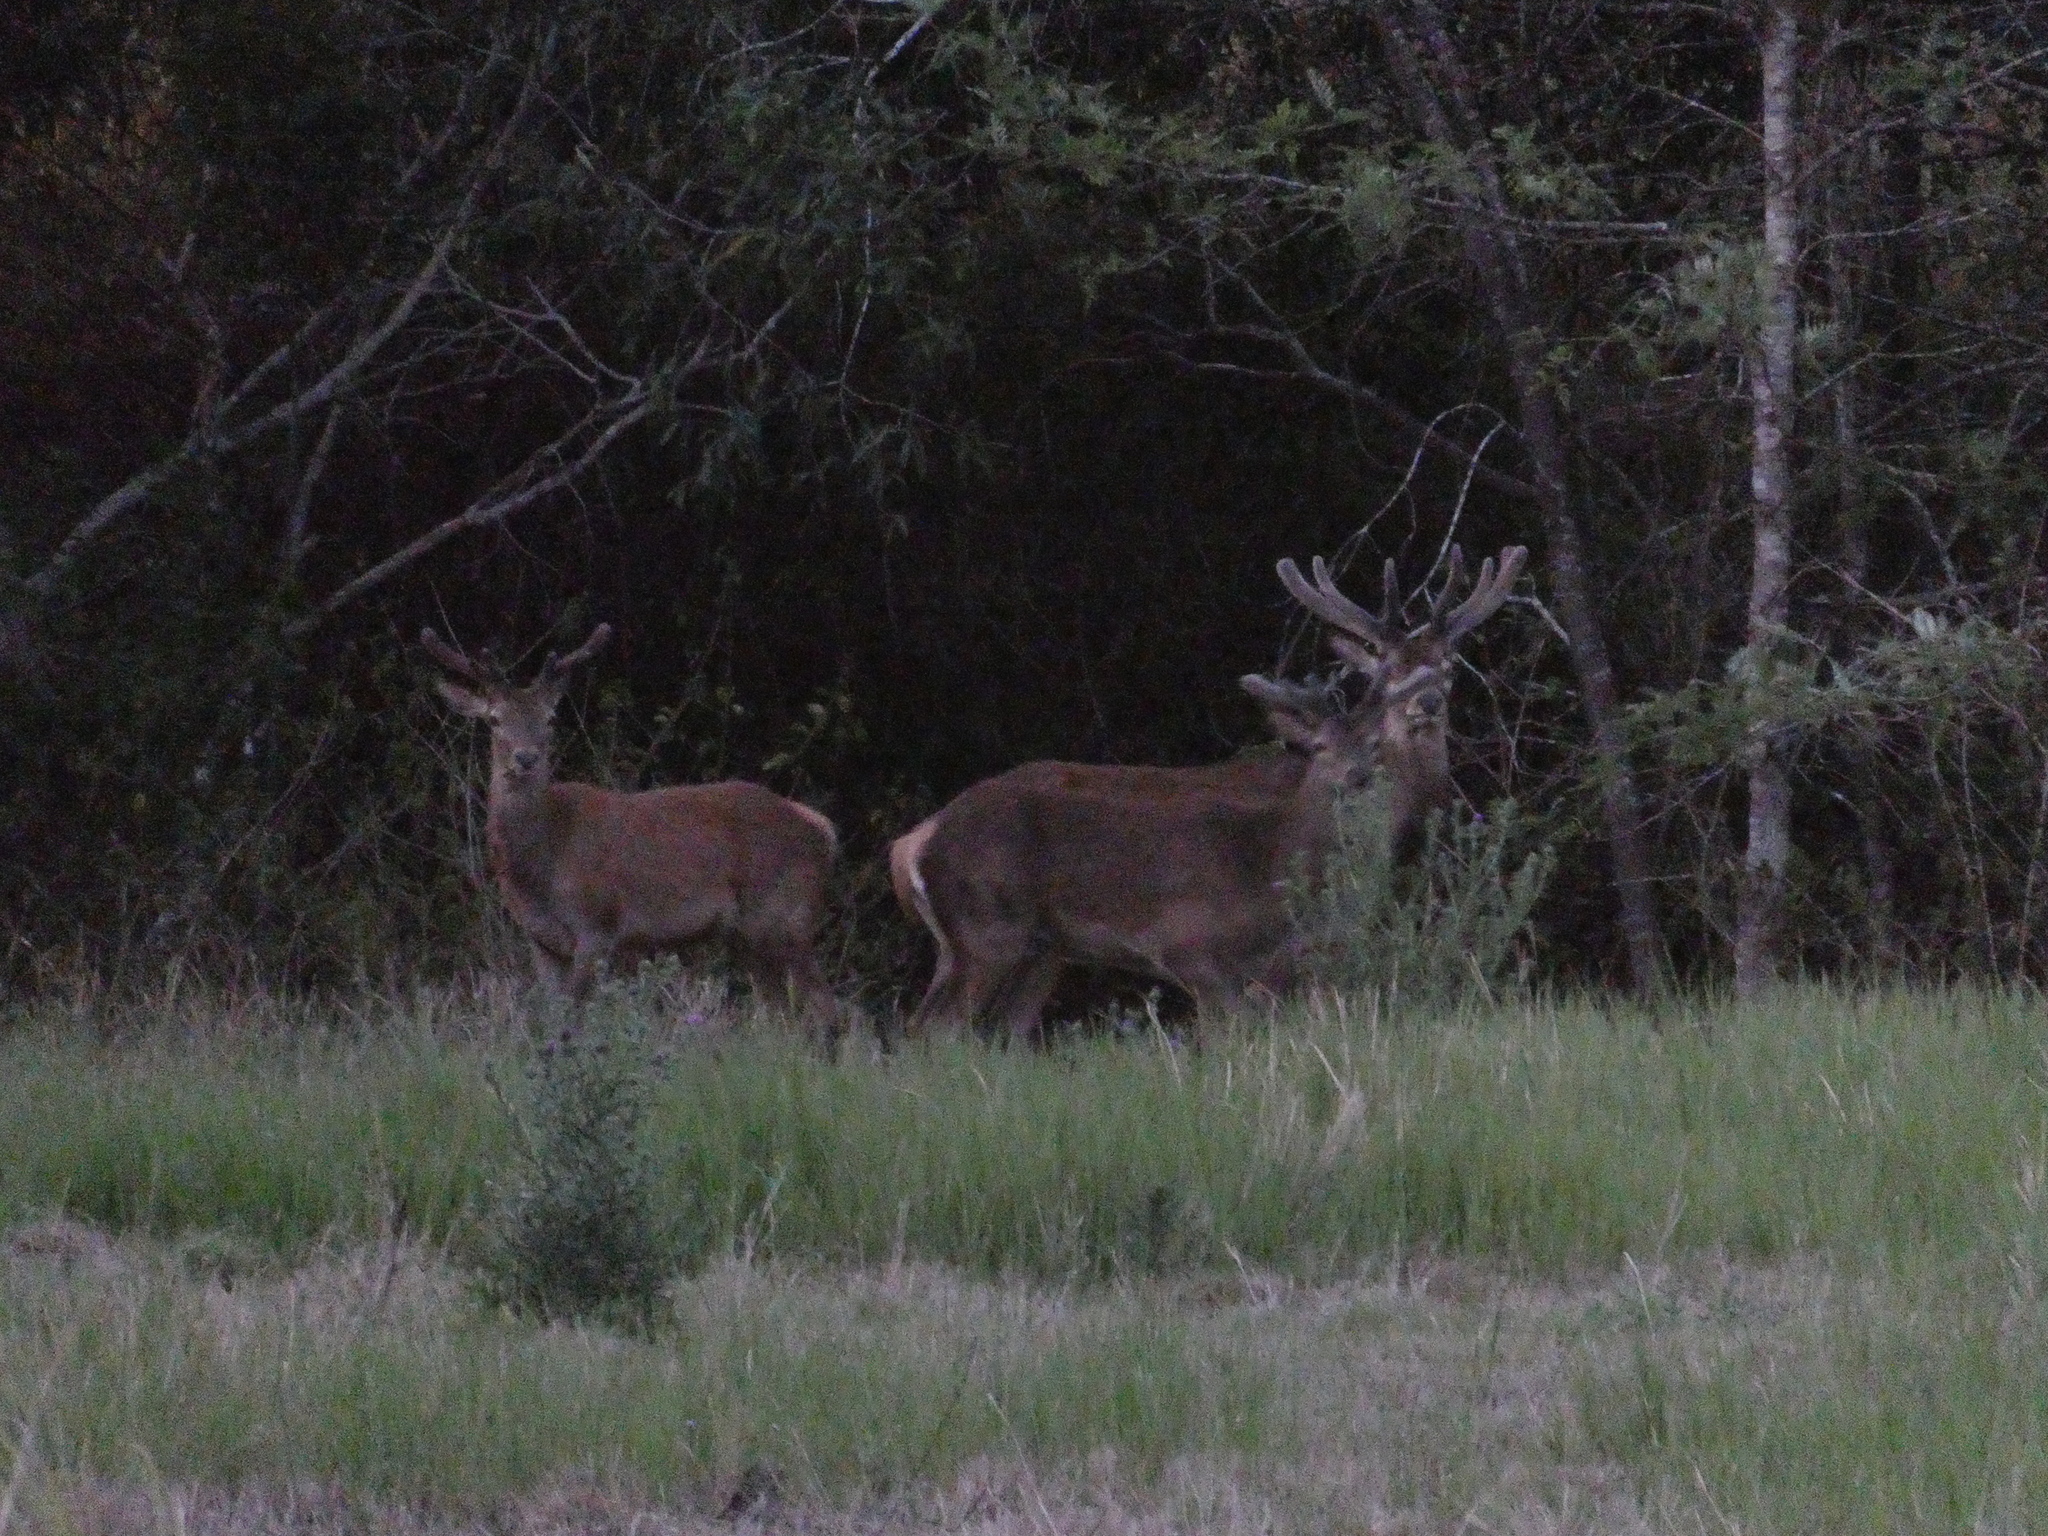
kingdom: Animalia
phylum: Chordata
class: Mammalia
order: Artiodactyla
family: Cervidae
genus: Cervus
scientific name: Cervus elaphus
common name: Red deer
